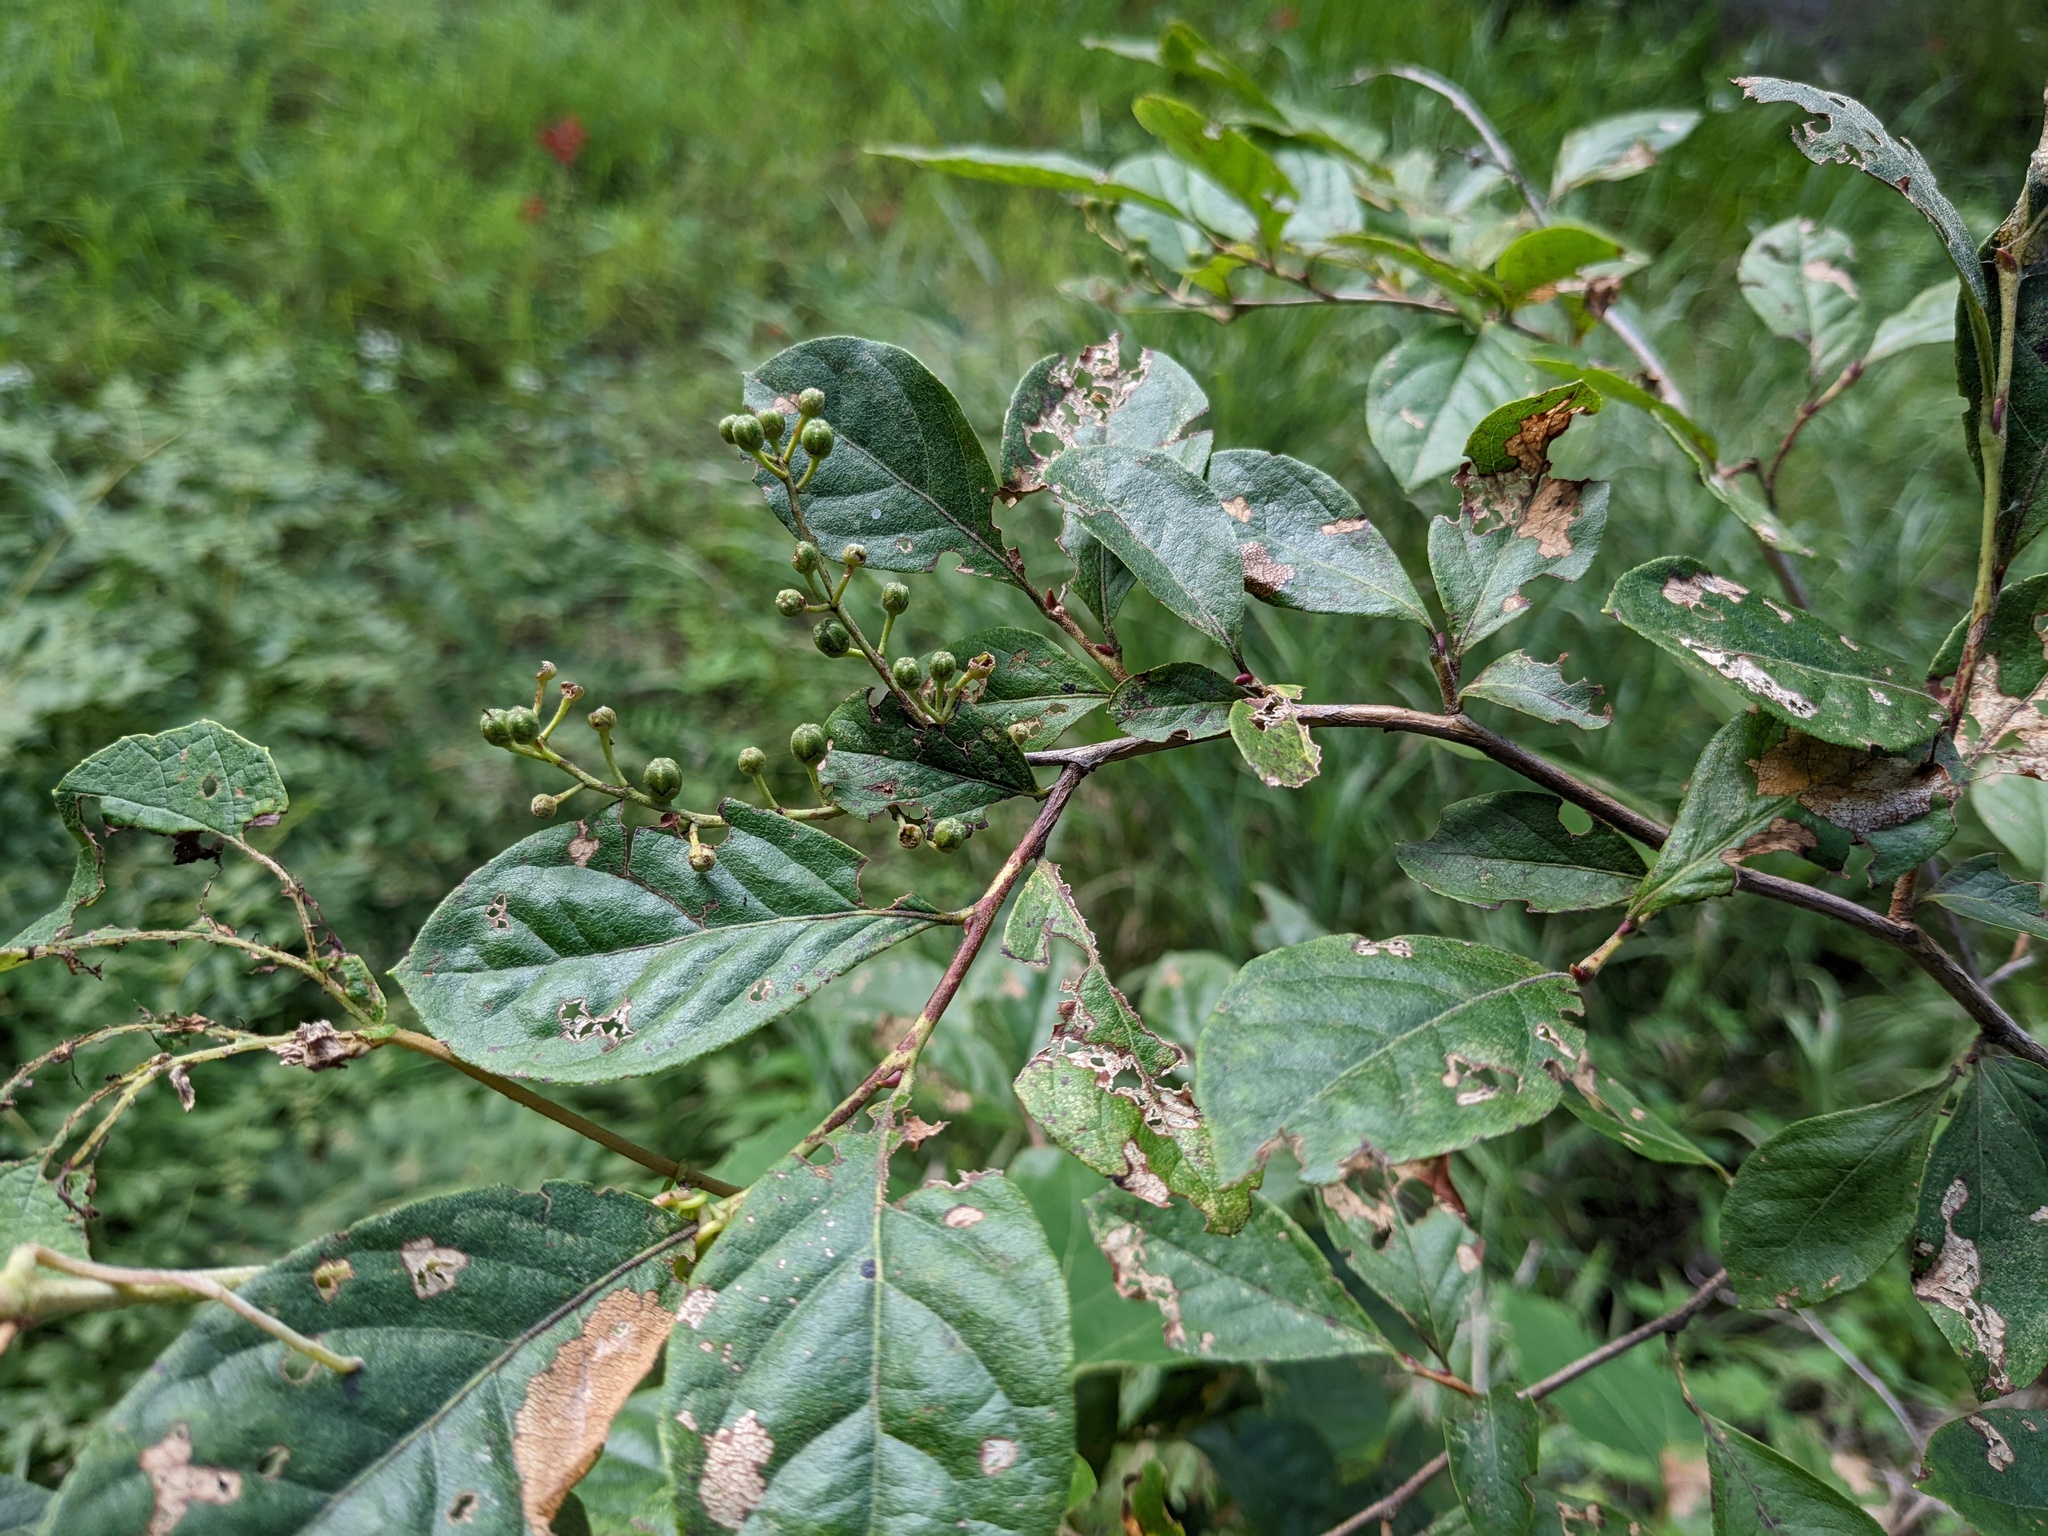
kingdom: Plantae
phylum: Tracheophyta
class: Magnoliopsida
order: Ericales
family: Ericaceae
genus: Lyonia
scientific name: Lyonia ligustrina
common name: Maleberry
